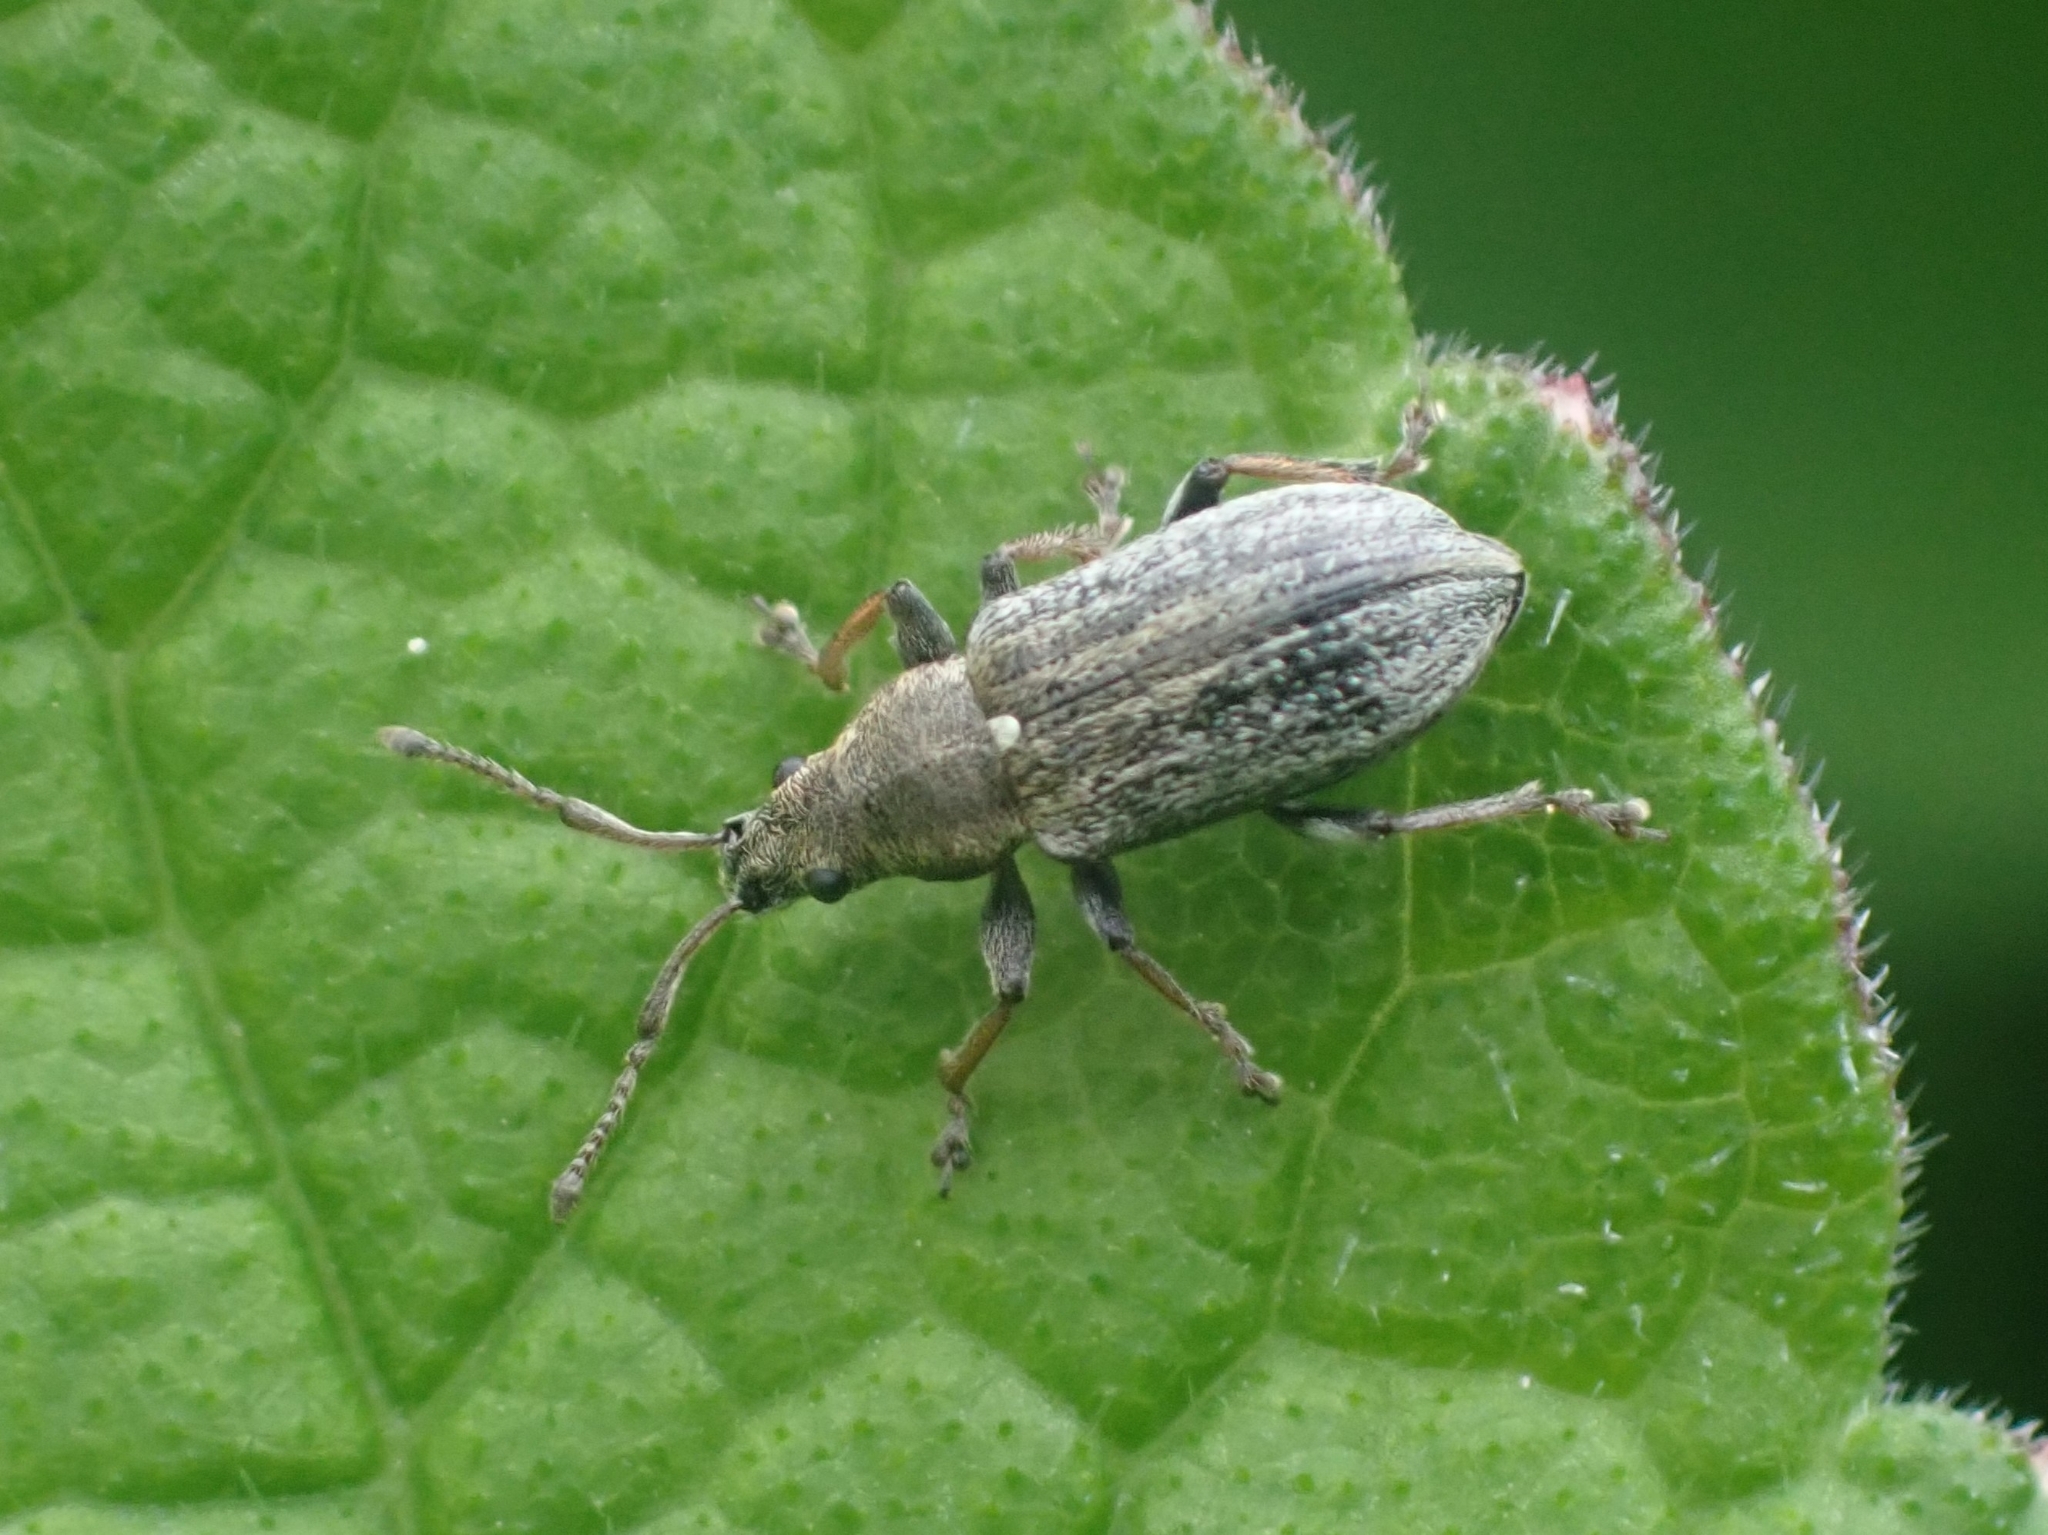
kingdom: Animalia
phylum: Arthropoda
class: Insecta
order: Coleoptera
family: Curculionidae
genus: Phyllobius
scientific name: Phyllobius pyri
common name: Common leaf weevil
